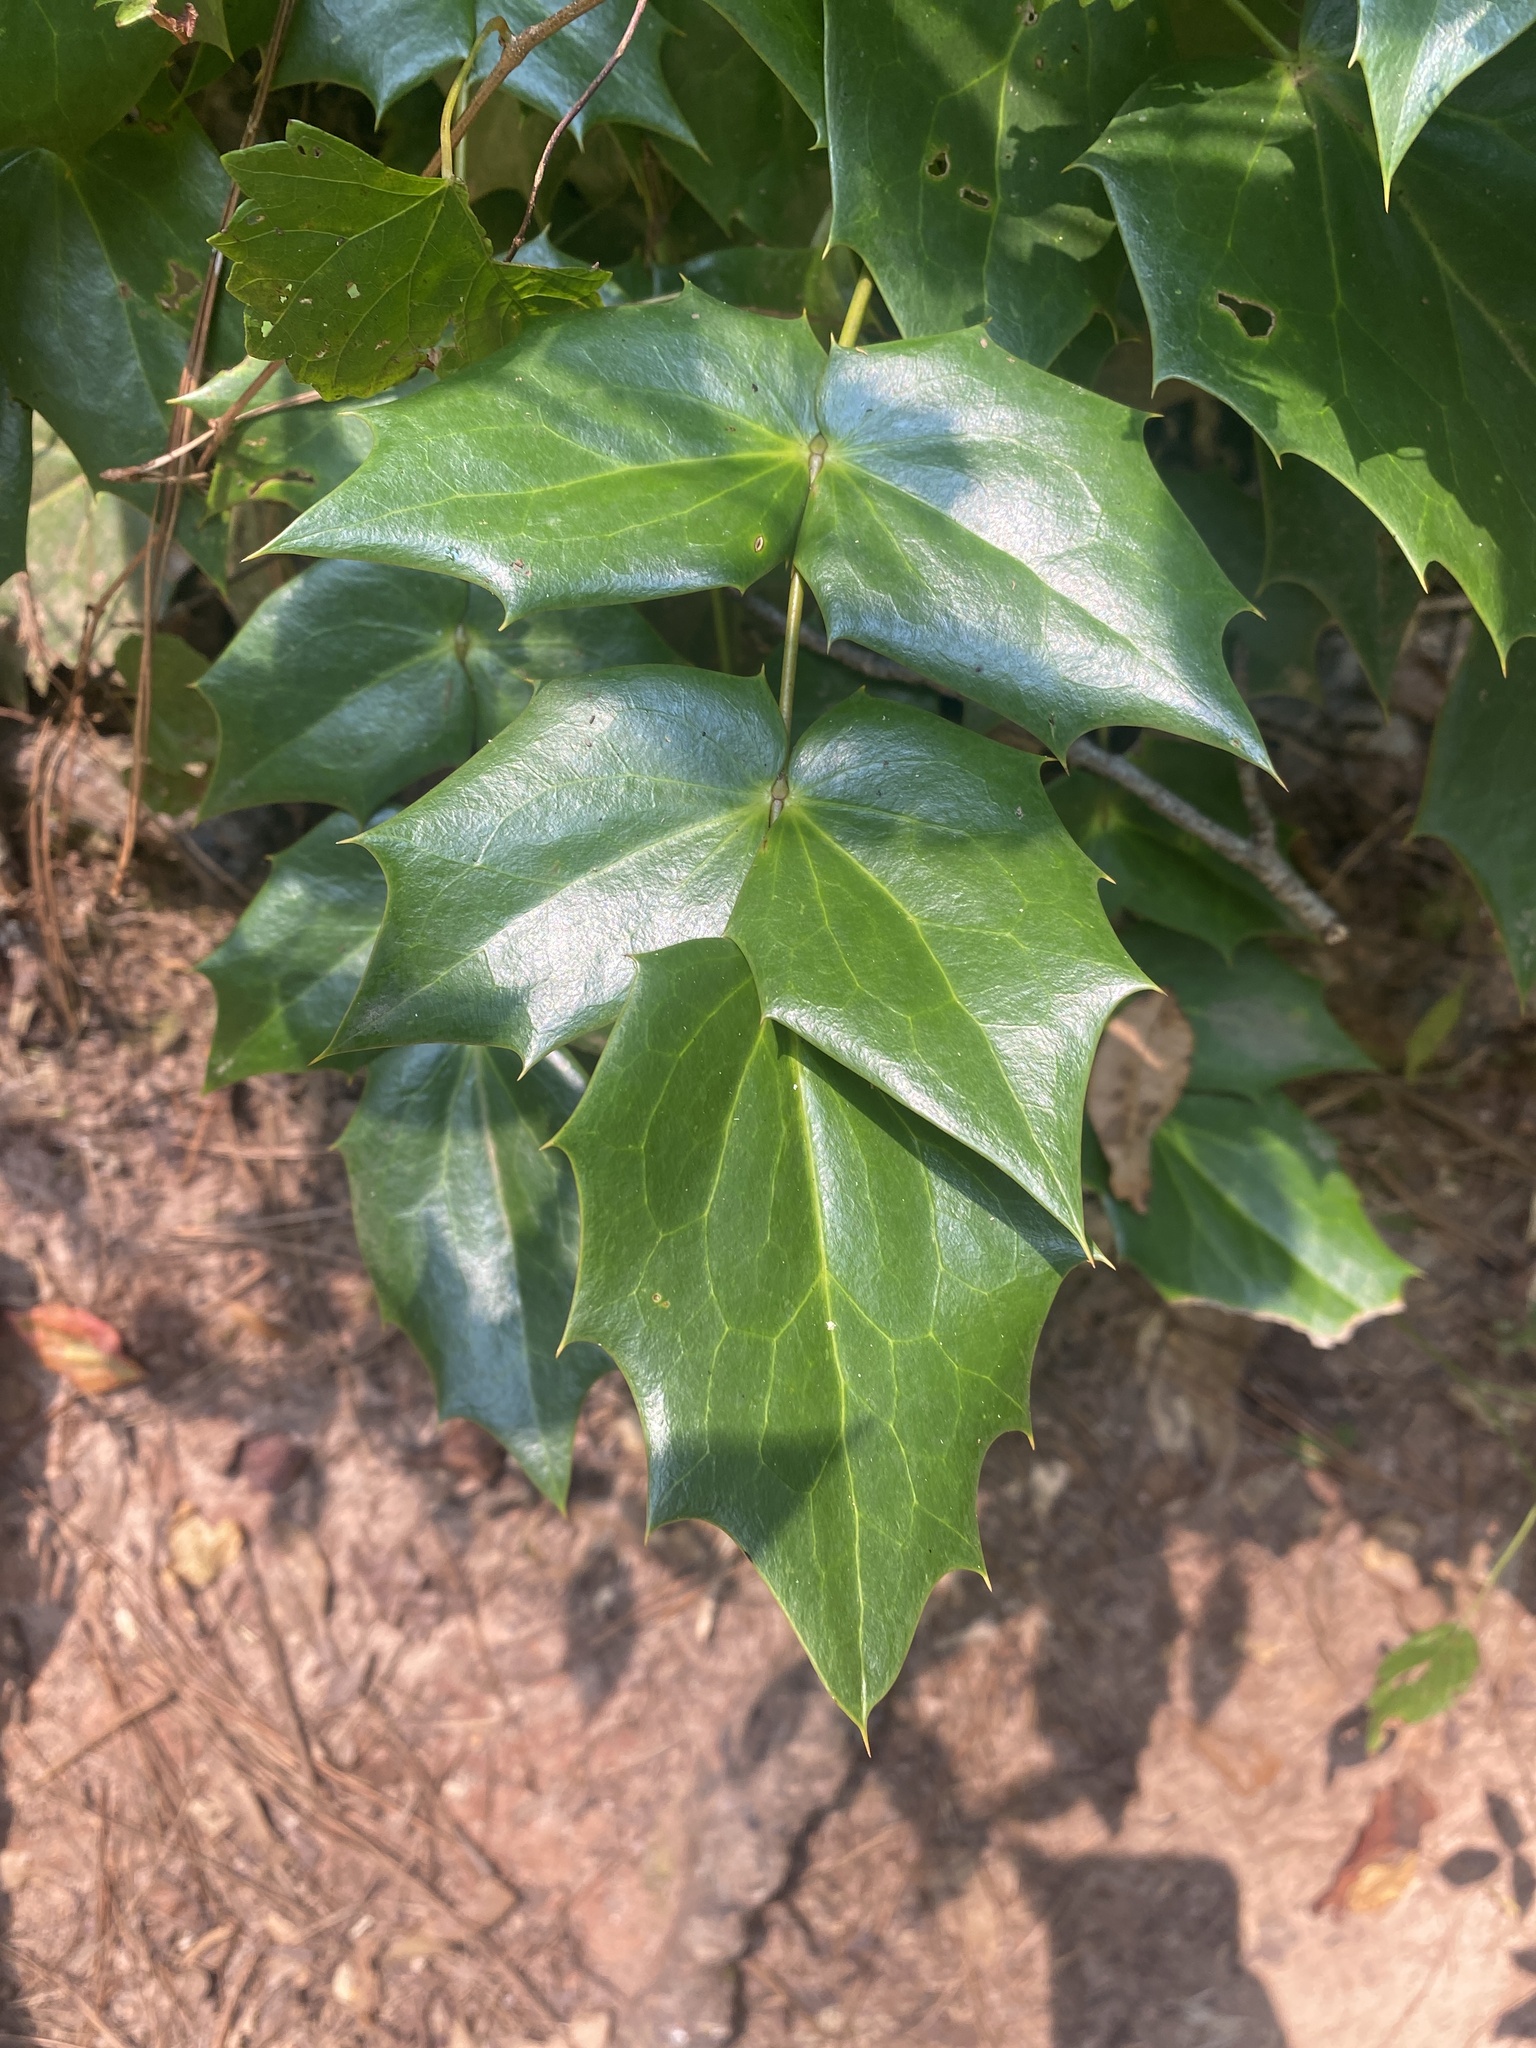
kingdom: Plantae
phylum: Tracheophyta
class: Magnoliopsida
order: Ranunculales
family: Berberidaceae
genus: Mahonia
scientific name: Mahonia bealei
